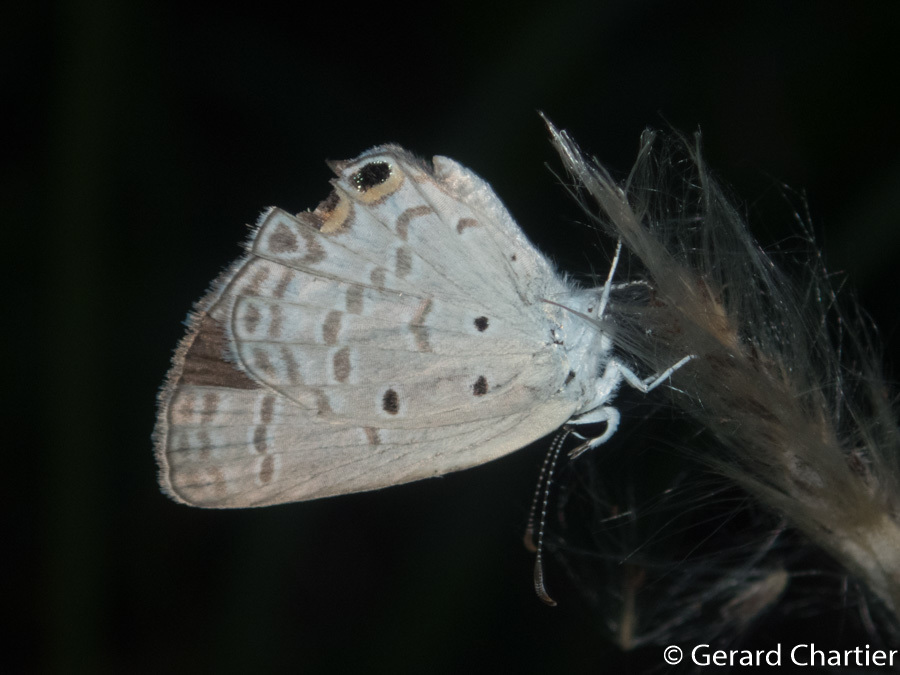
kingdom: Animalia
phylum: Arthropoda
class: Insecta
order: Lepidoptera
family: Lycaenidae
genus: Euchrysops
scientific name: Euchrysops cnejus
